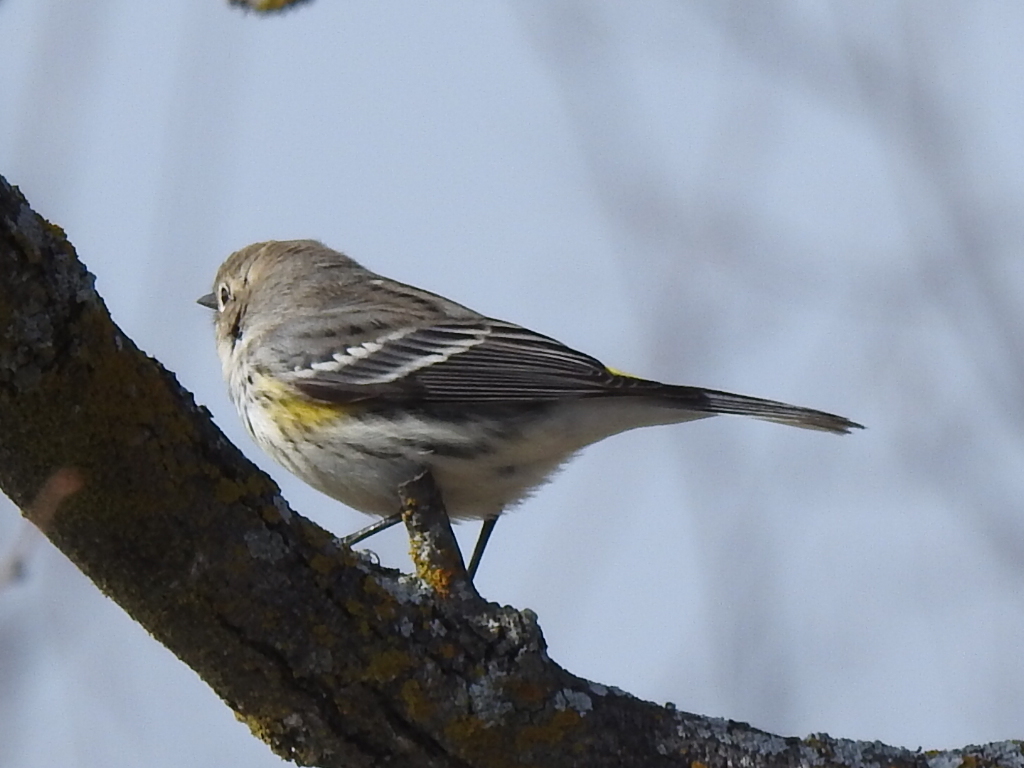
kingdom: Animalia
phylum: Chordata
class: Aves
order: Passeriformes
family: Parulidae
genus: Setophaga
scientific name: Setophaga coronata
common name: Myrtle warbler
